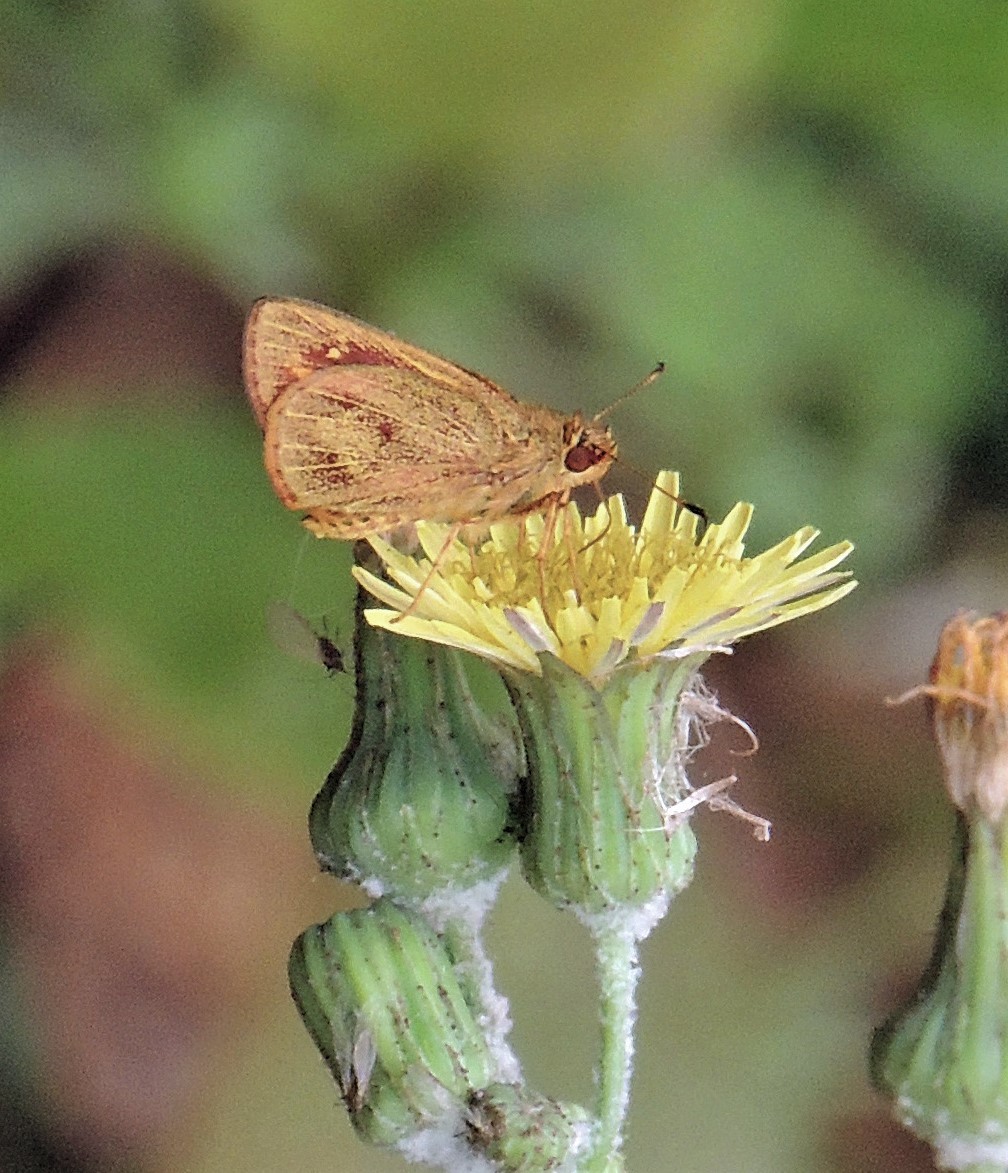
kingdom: Animalia
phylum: Arthropoda
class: Insecta
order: Lepidoptera
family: Hesperiidae
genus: Lento
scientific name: Lento krexoides
